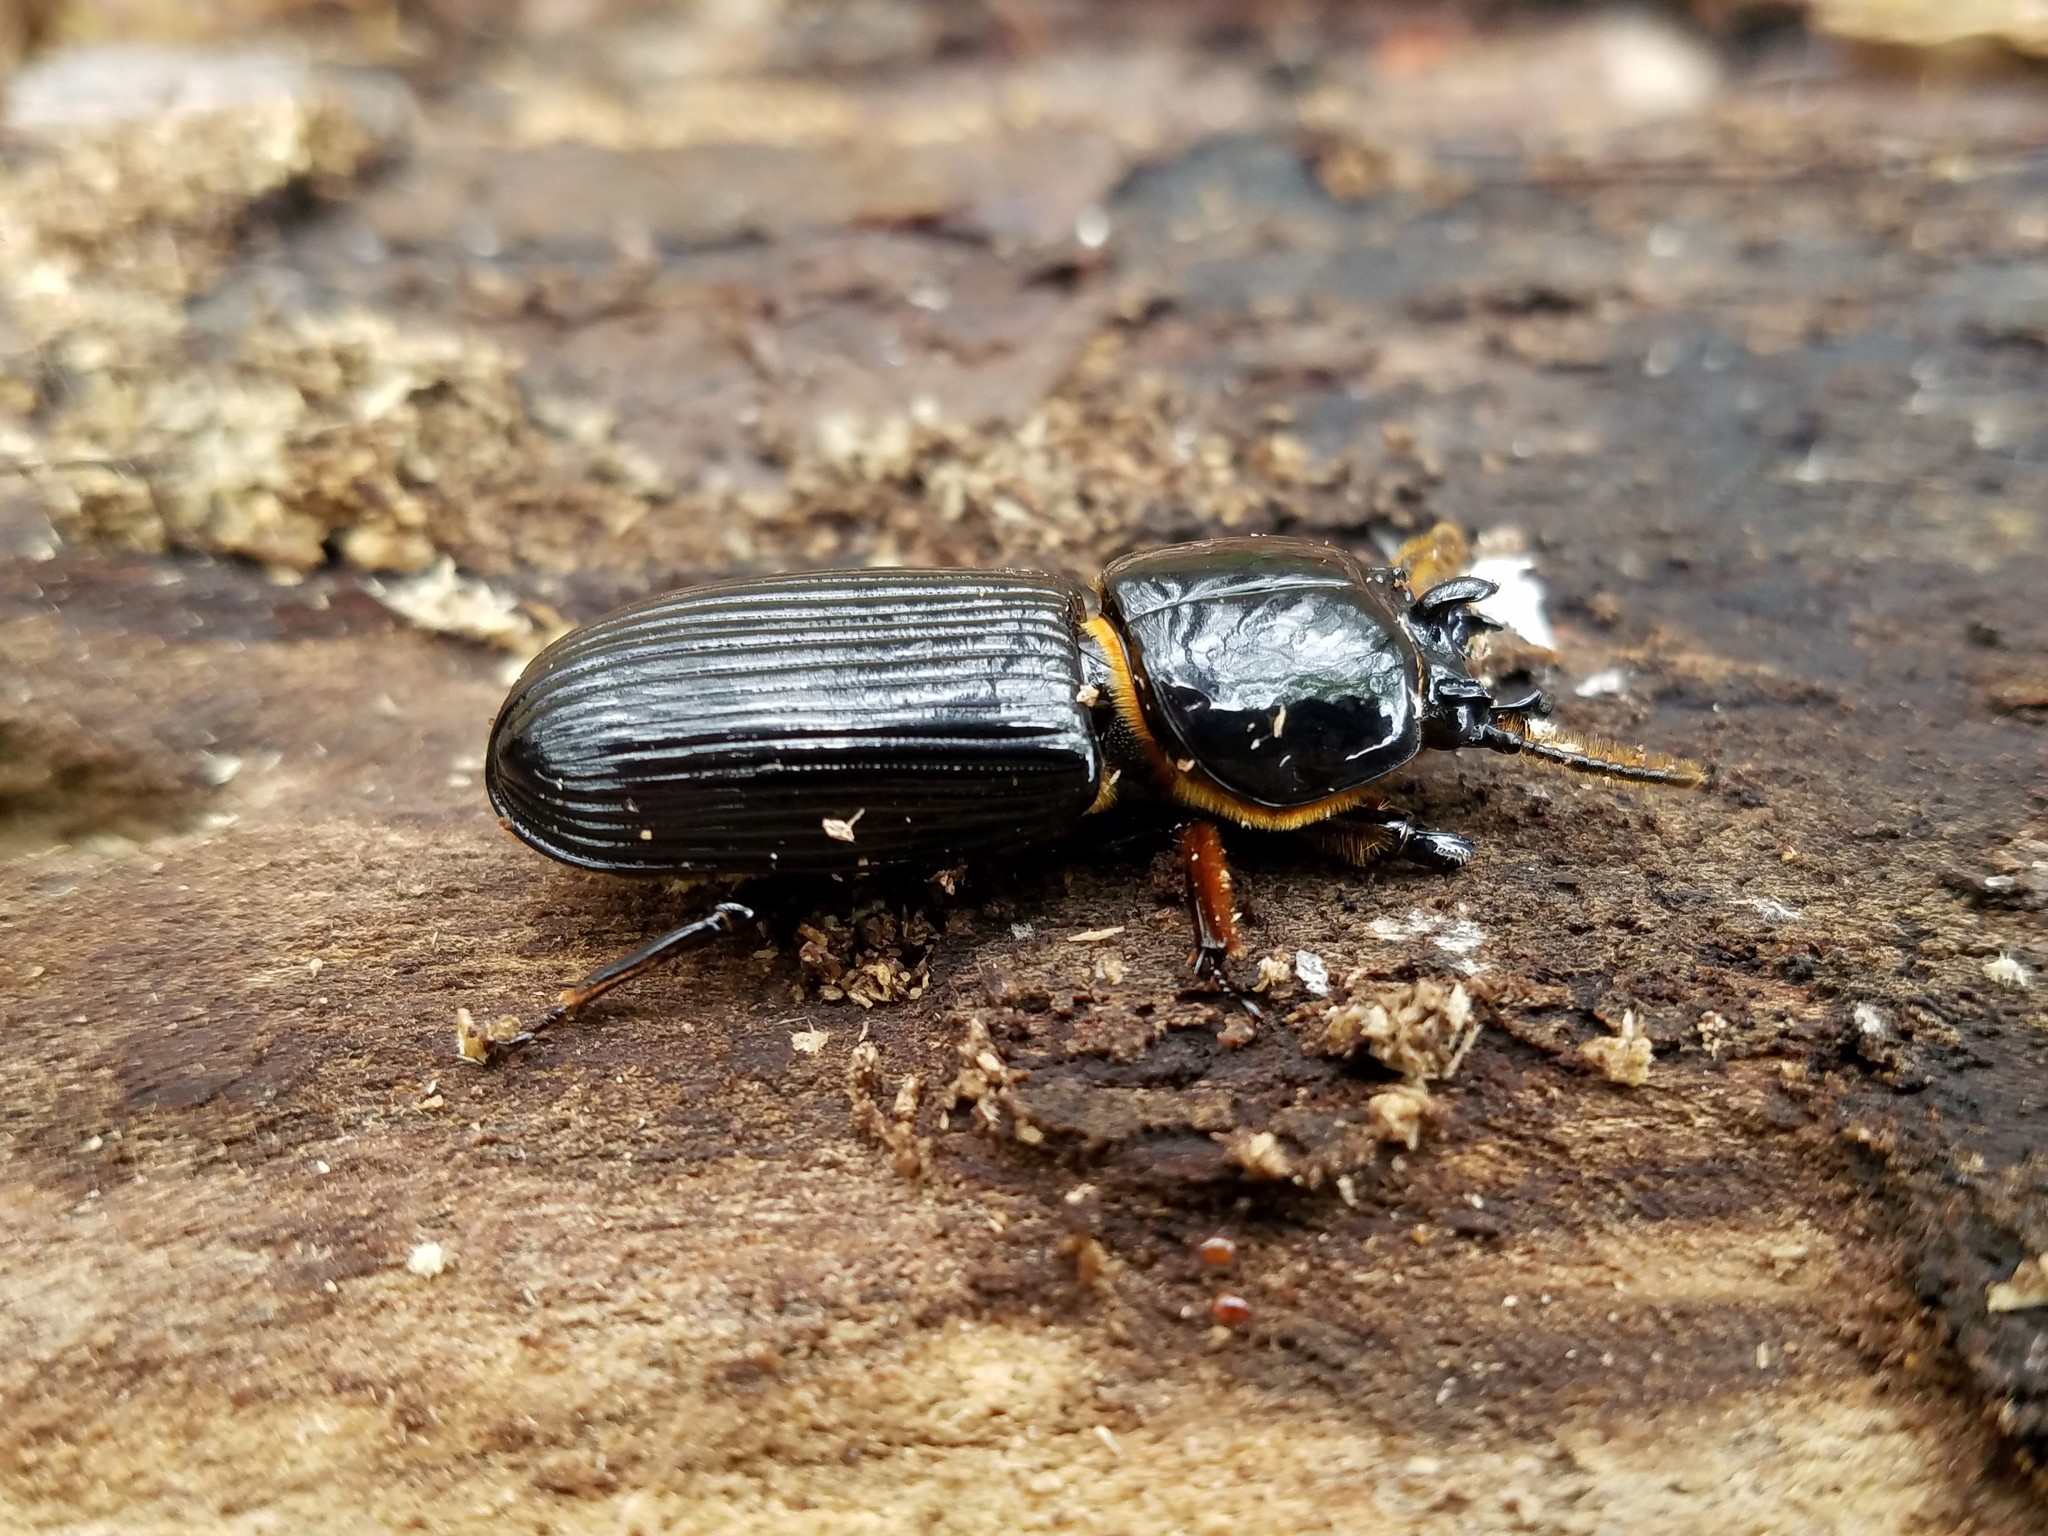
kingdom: Animalia
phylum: Arthropoda
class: Insecta
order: Coleoptera
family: Passalidae
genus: Odontotaenius
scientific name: Odontotaenius disjunctus
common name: Patent leather beetle
